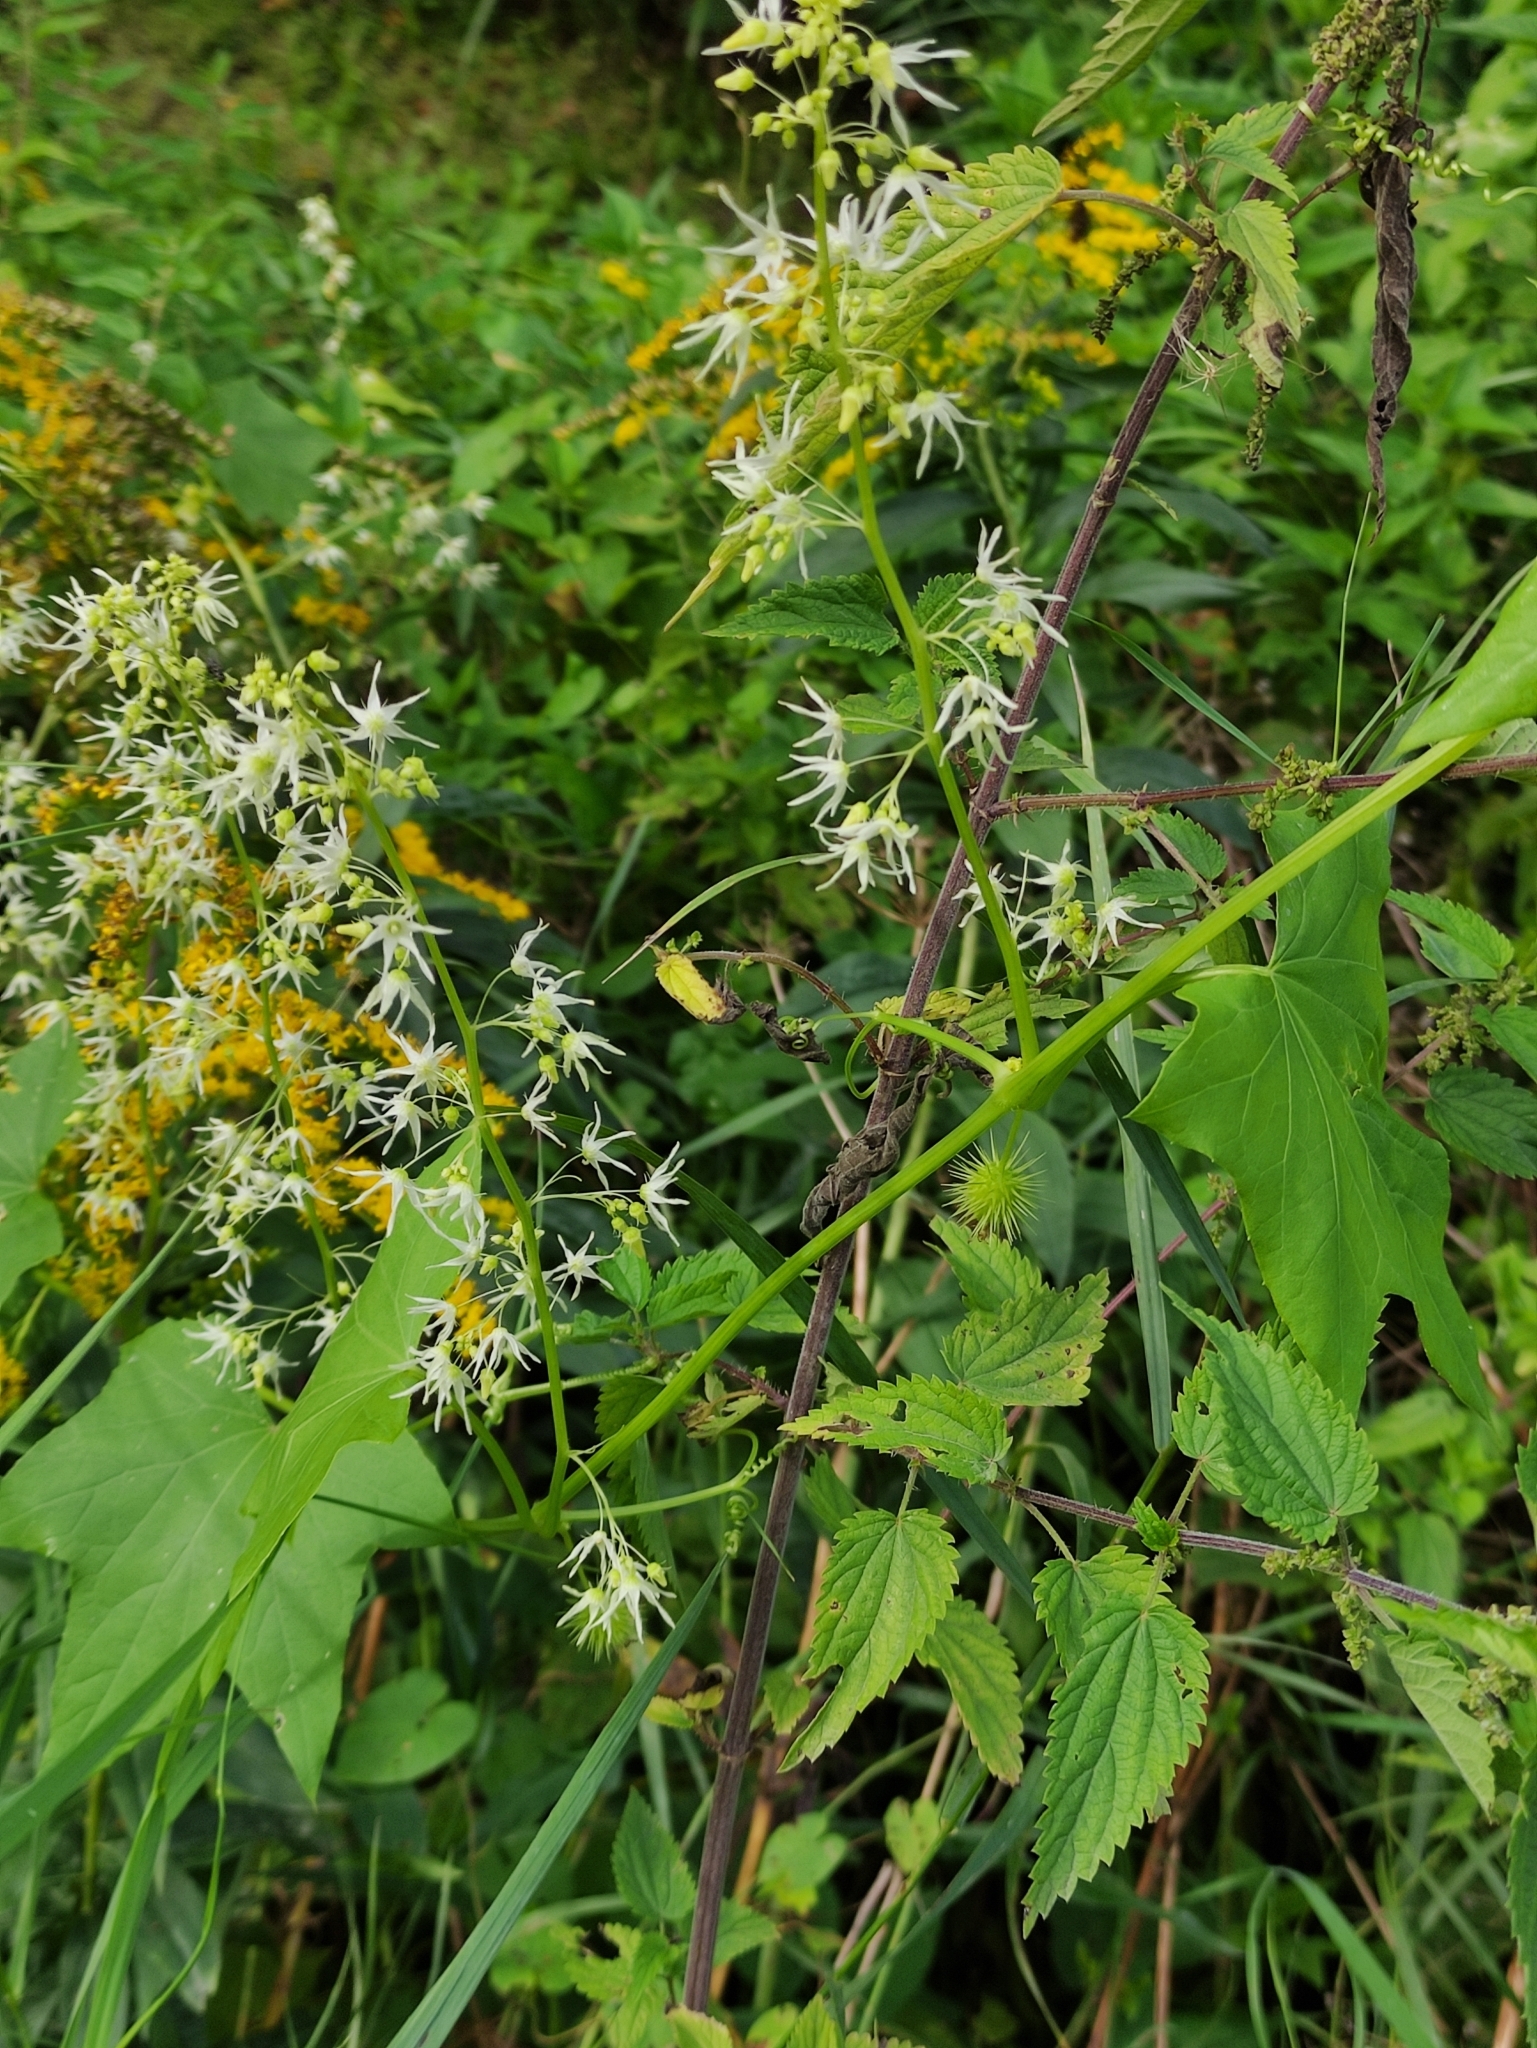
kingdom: Plantae
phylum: Tracheophyta
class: Magnoliopsida
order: Cucurbitales
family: Cucurbitaceae
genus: Echinocystis
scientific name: Echinocystis lobata
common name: Wild cucumber
